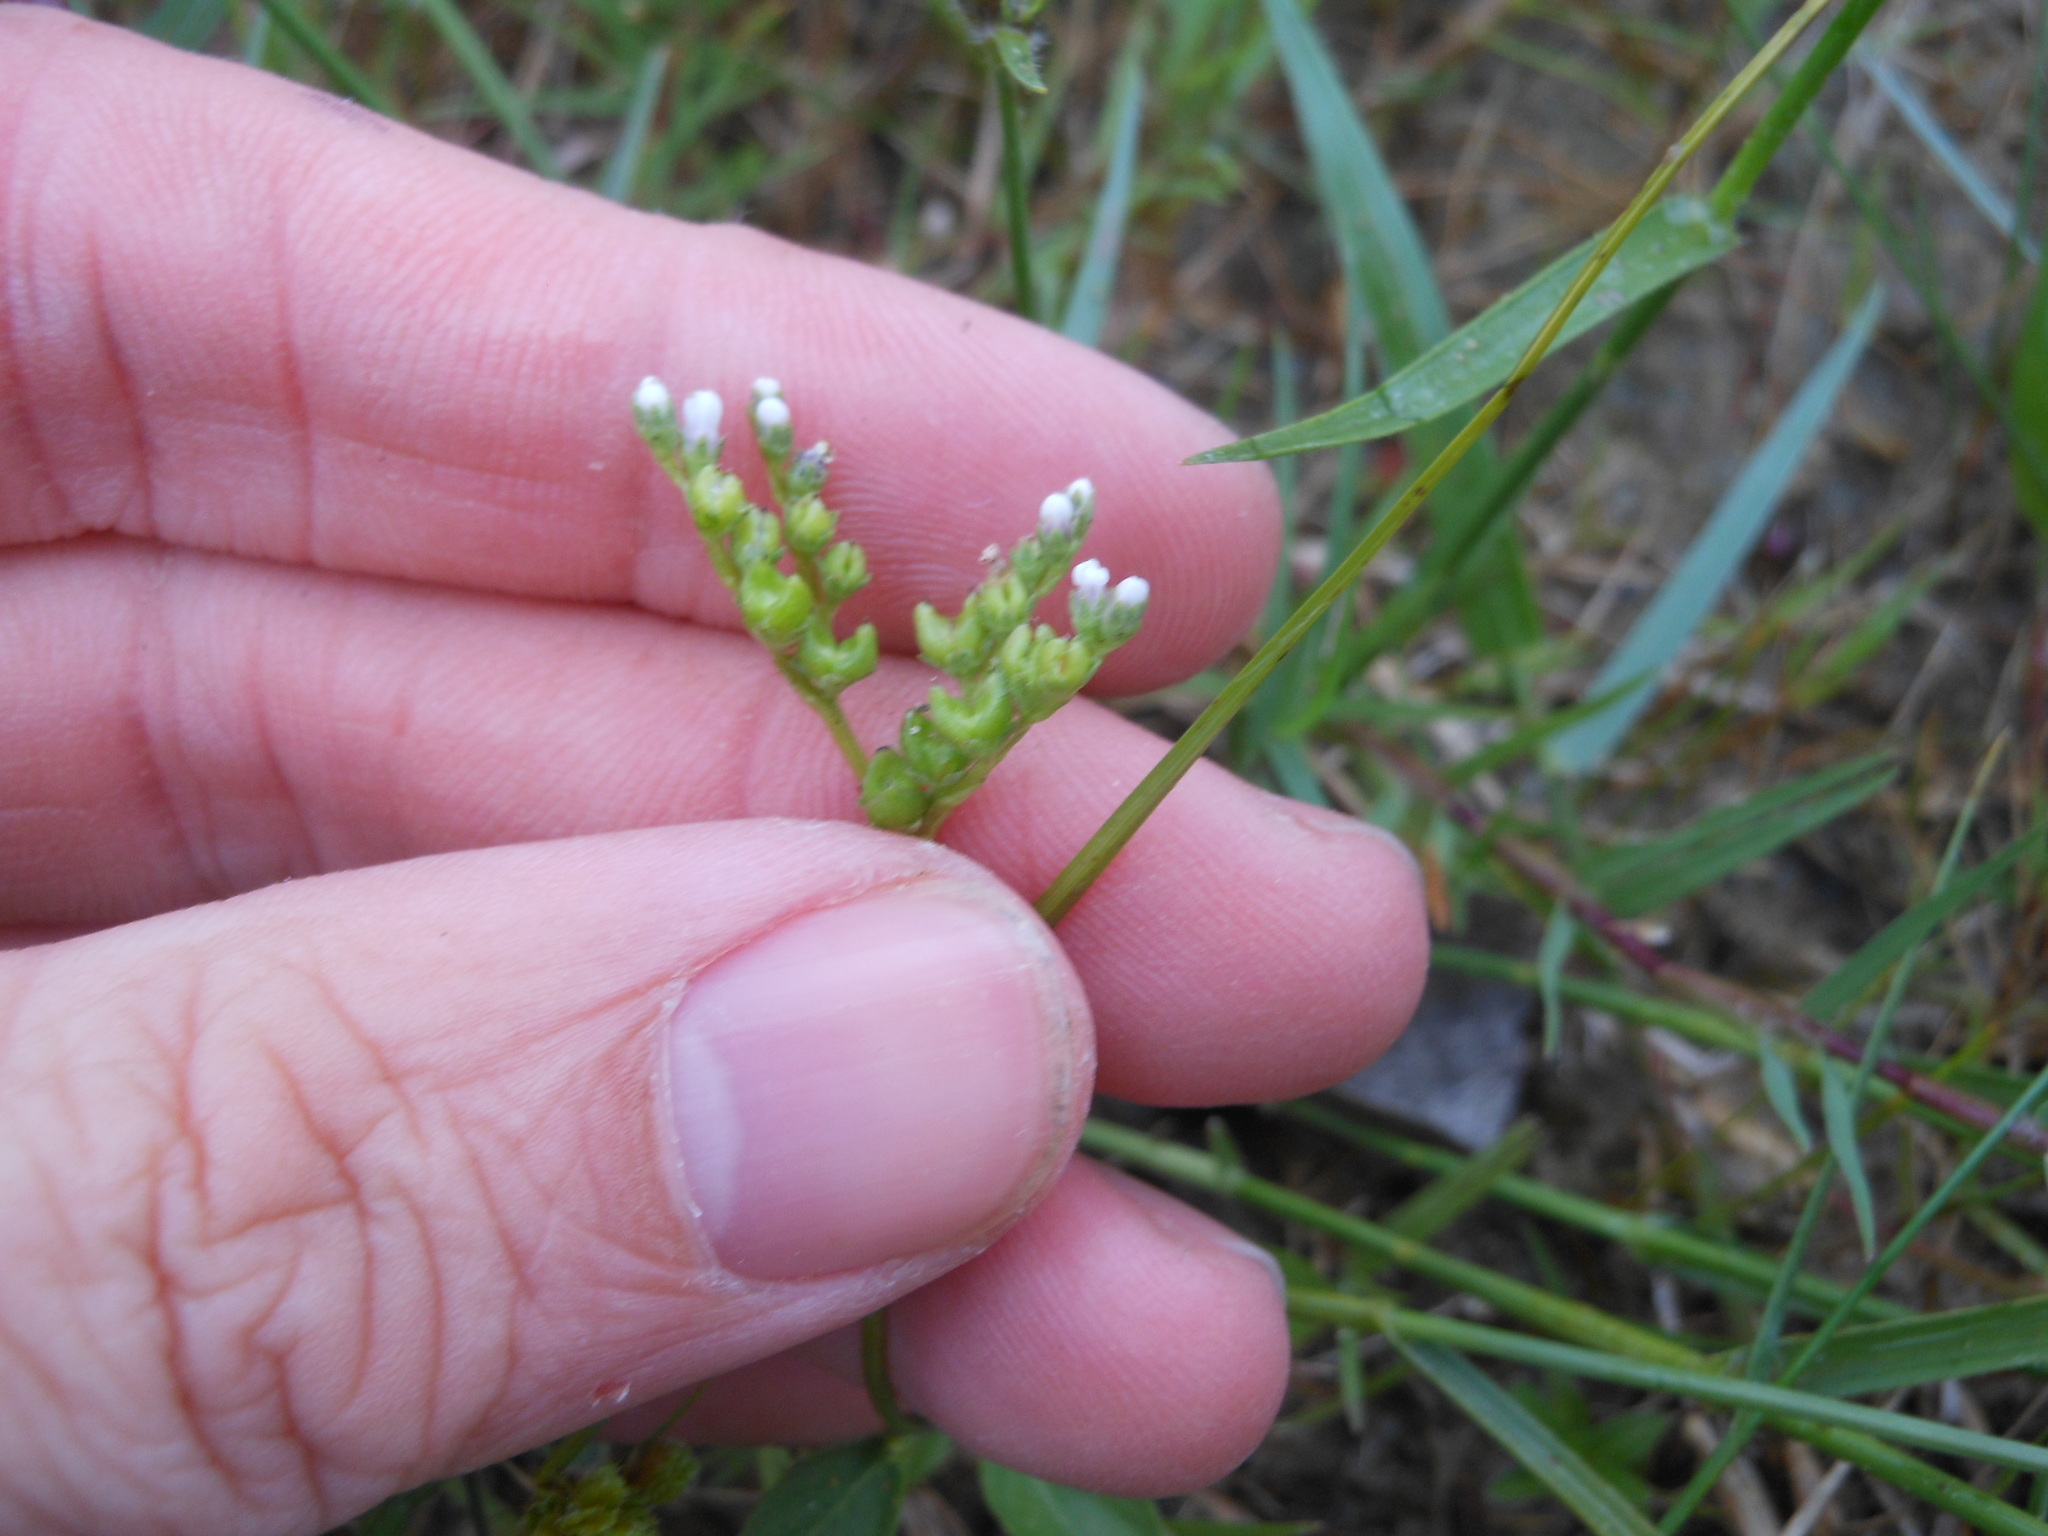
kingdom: Plantae
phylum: Tracheophyta
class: Magnoliopsida
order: Gentianales
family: Loganiaceae
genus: Mitreola
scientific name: Mitreola petiolata
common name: Lax hornpod
